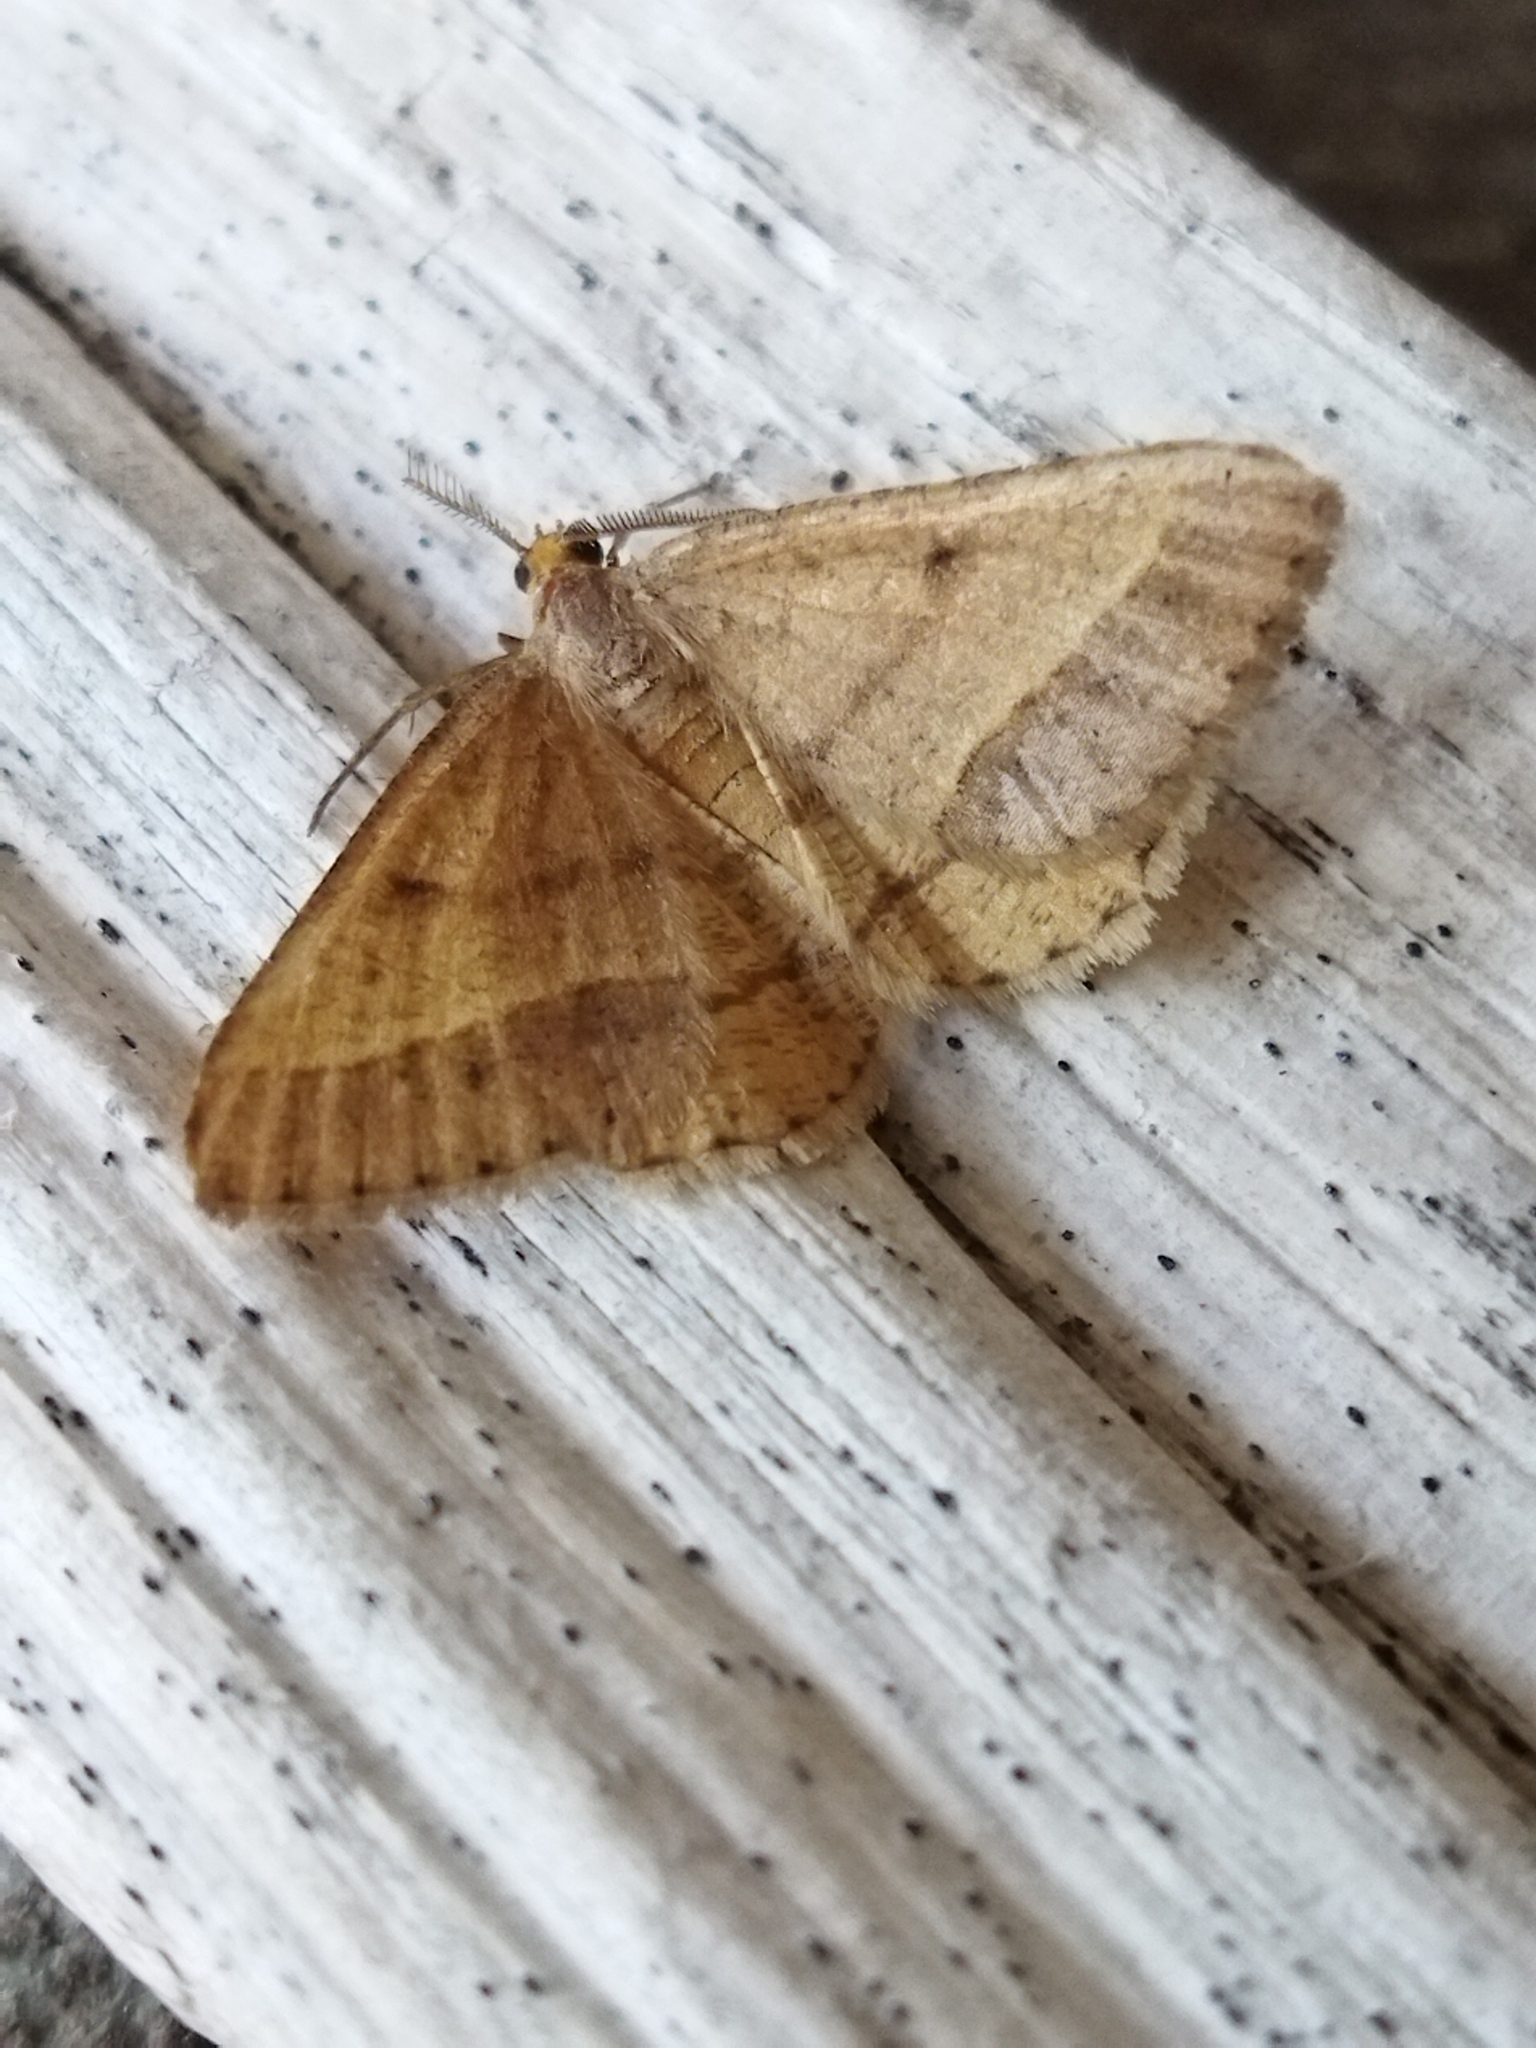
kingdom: Animalia
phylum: Arthropoda
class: Insecta
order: Lepidoptera
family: Geometridae
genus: Tephrina
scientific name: Tephrina arenacearia
